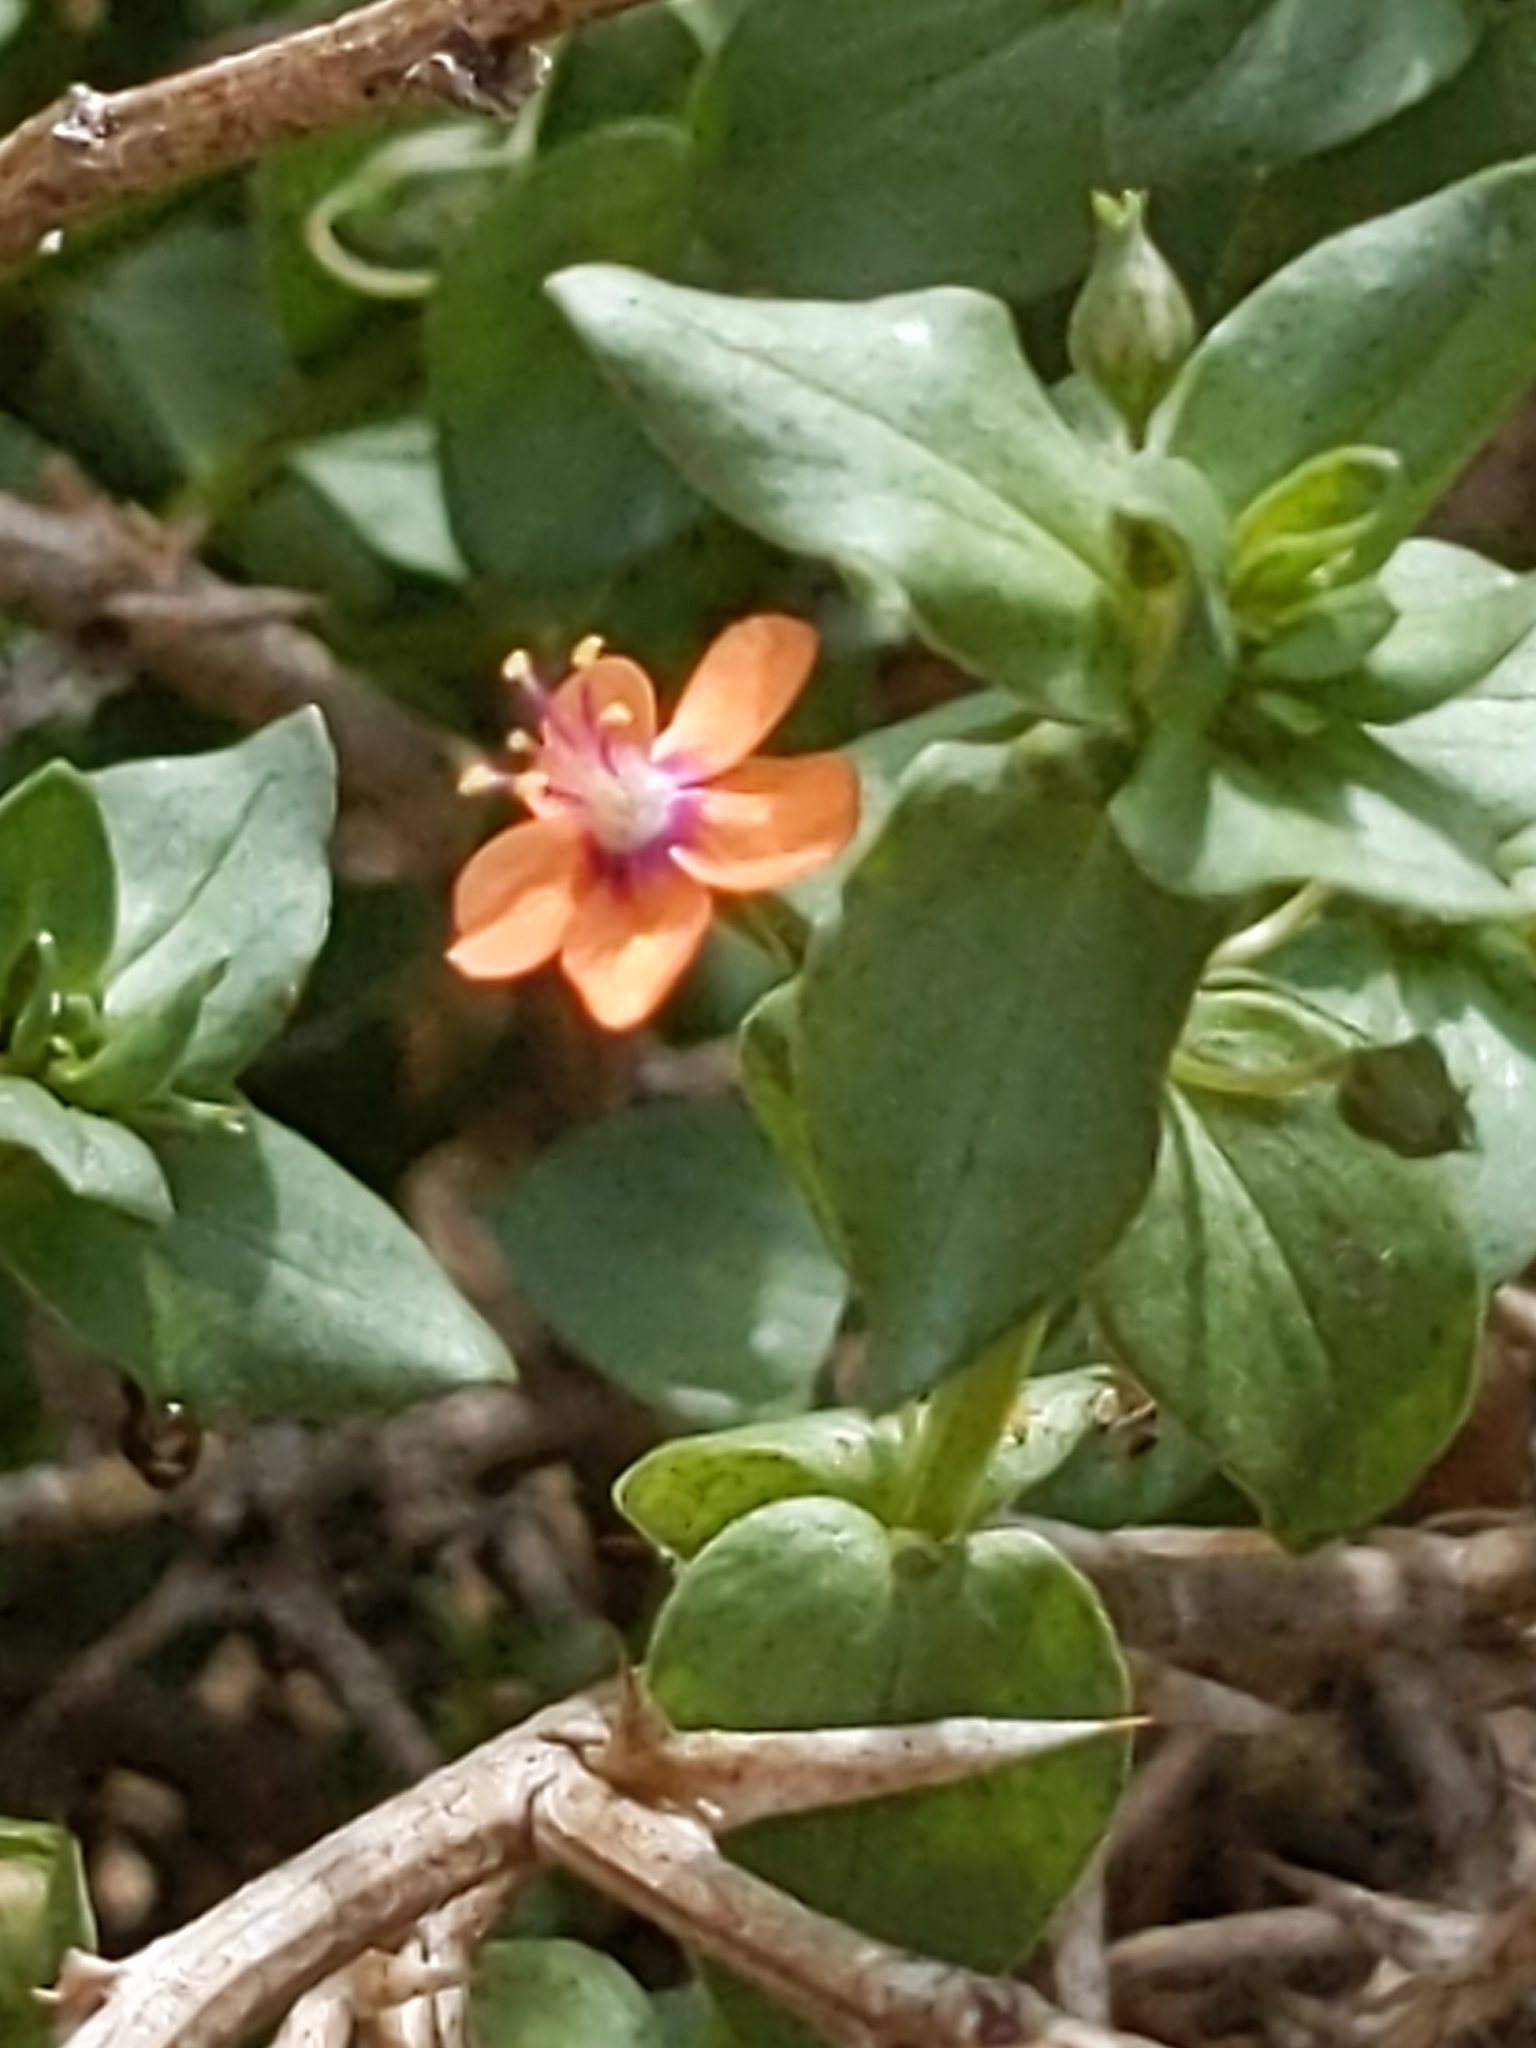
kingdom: Plantae
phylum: Tracheophyta
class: Magnoliopsida
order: Ericales
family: Primulaceae
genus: Lysimachia
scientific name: Lysimachia arvensis
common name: Scarlet pimpernel
